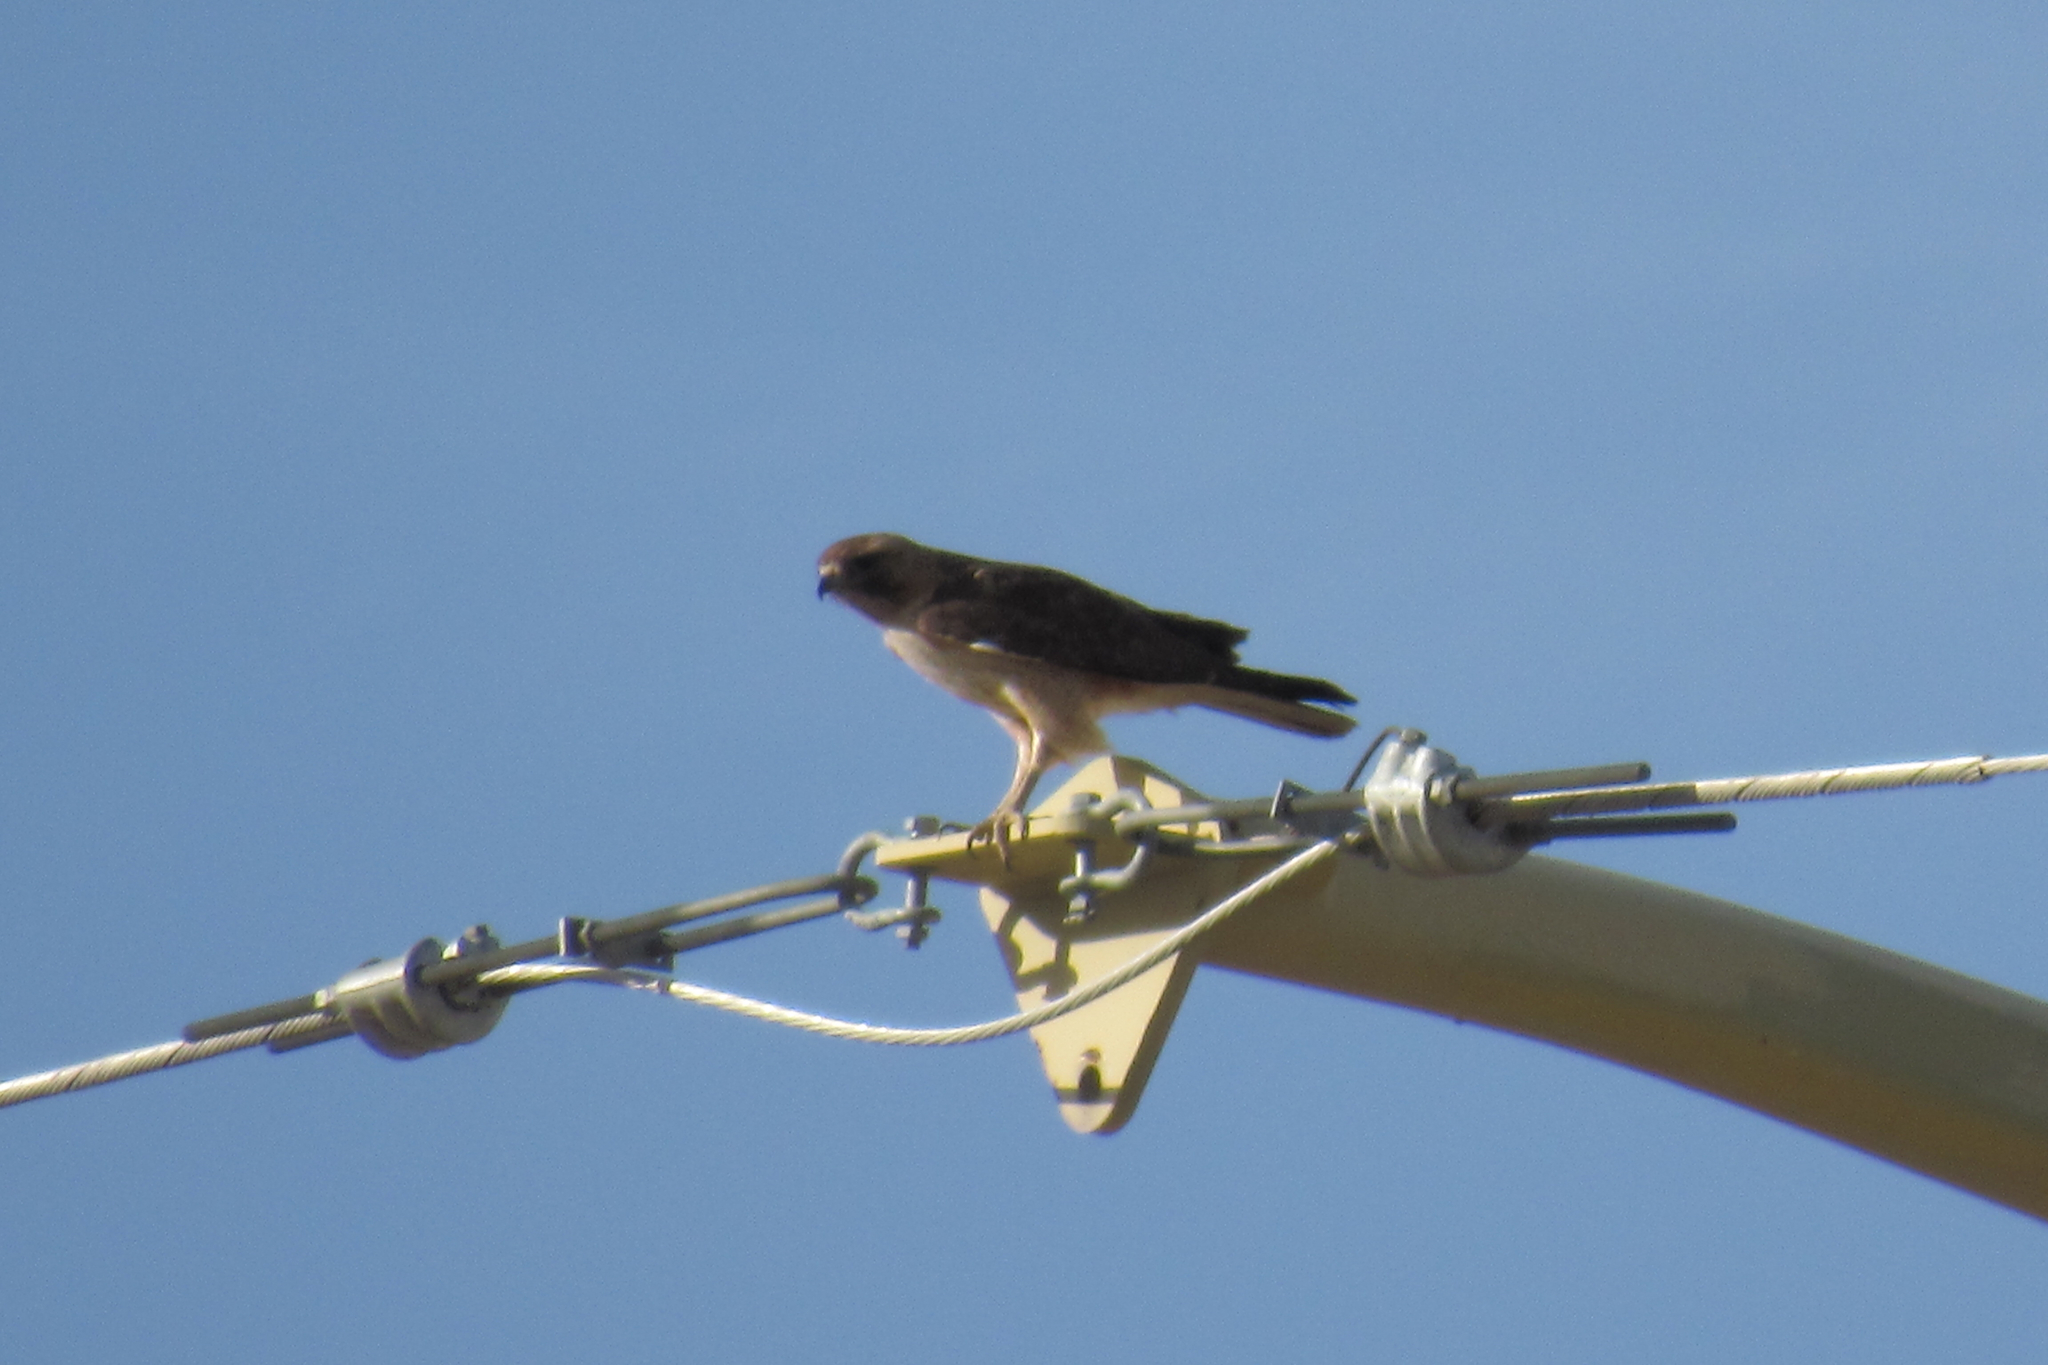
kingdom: Animalia
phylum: Chordata
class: Aves
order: Accipitriformes
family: Accipitridae
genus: Buteo
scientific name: Buteo jamaicensis
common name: Red-tailed hawk
